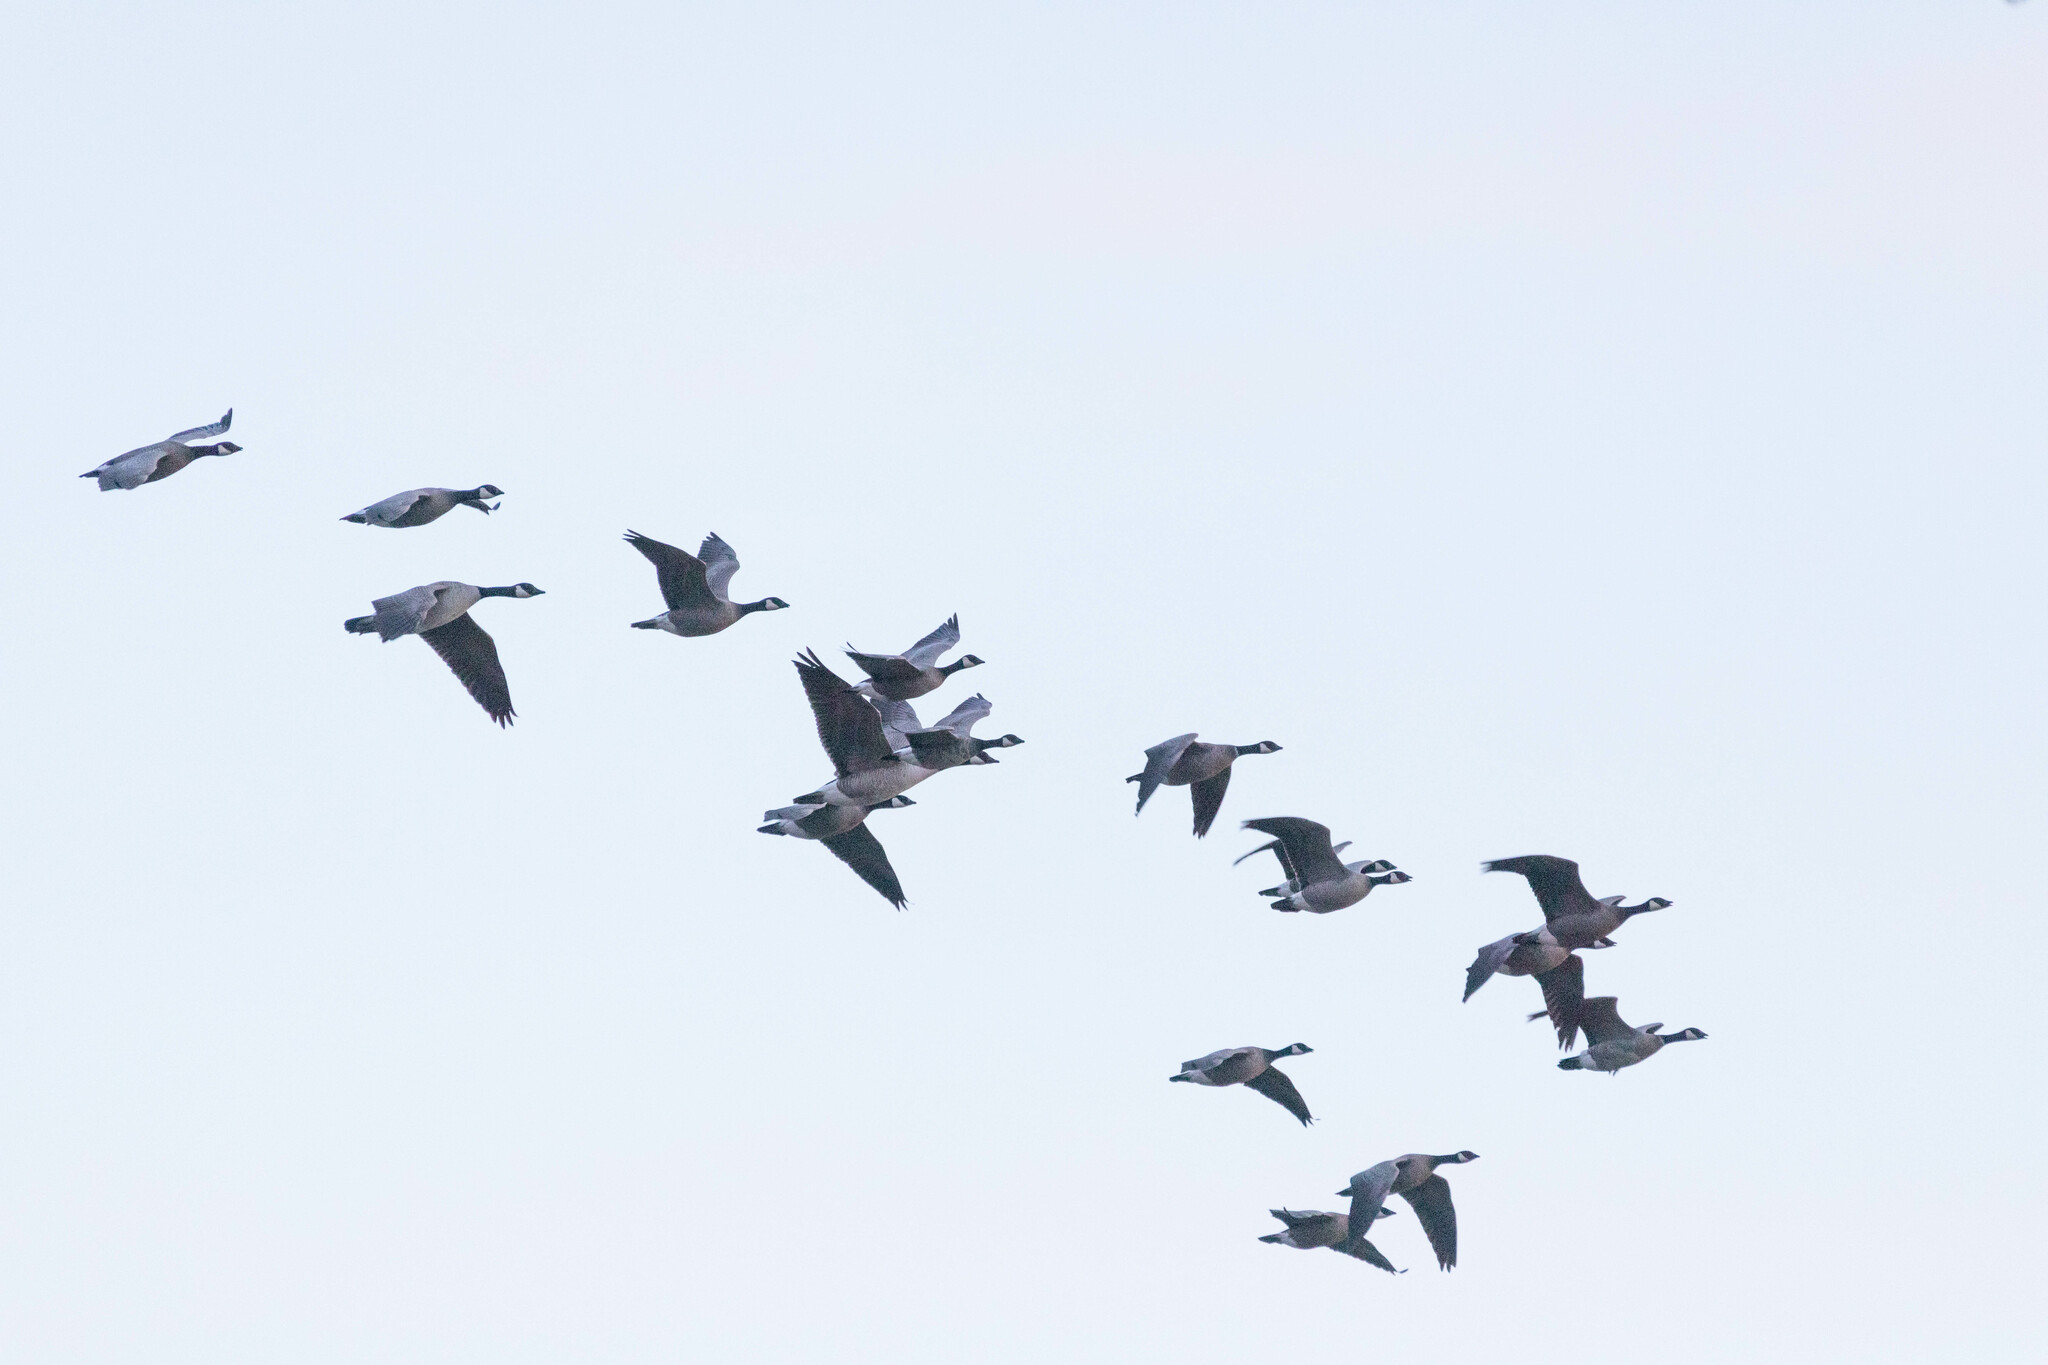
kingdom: Animalia
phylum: Chordata
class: Aves
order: Anseriformes
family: Anatidae
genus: Branta
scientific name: Branta hutchinsii
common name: Cackling goose
